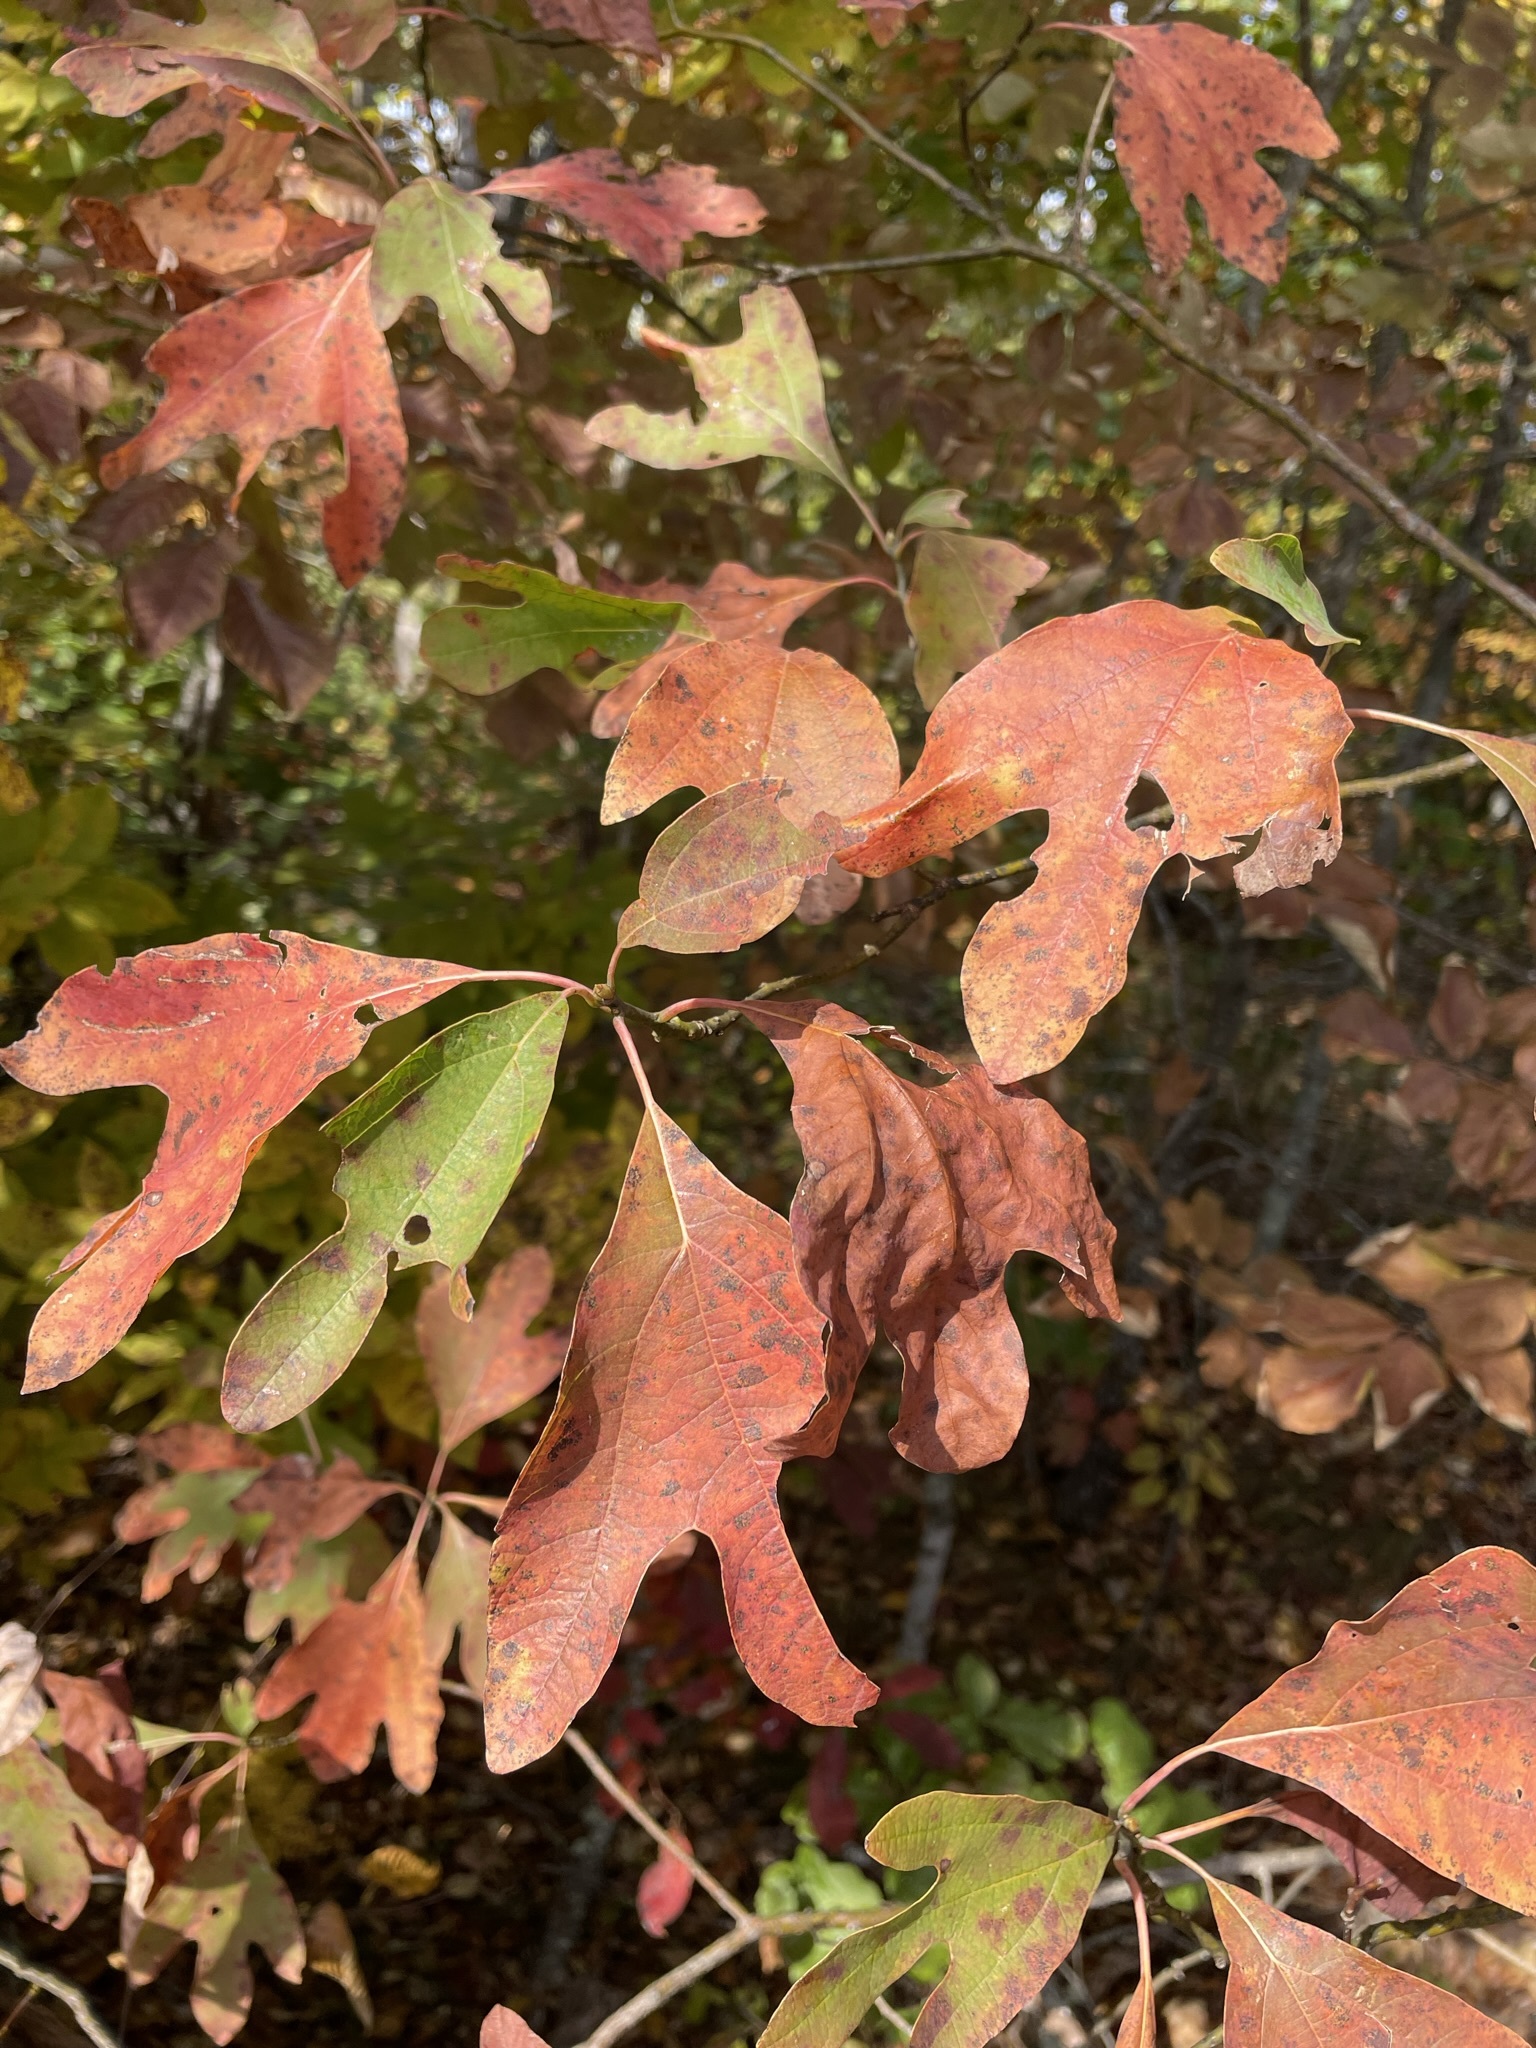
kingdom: Plantae
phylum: Tracheophyta
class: Magnoliopsida
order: Laurales
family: Lauraceae
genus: Sassafras
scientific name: Sassafras albidum
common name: Sassafras
